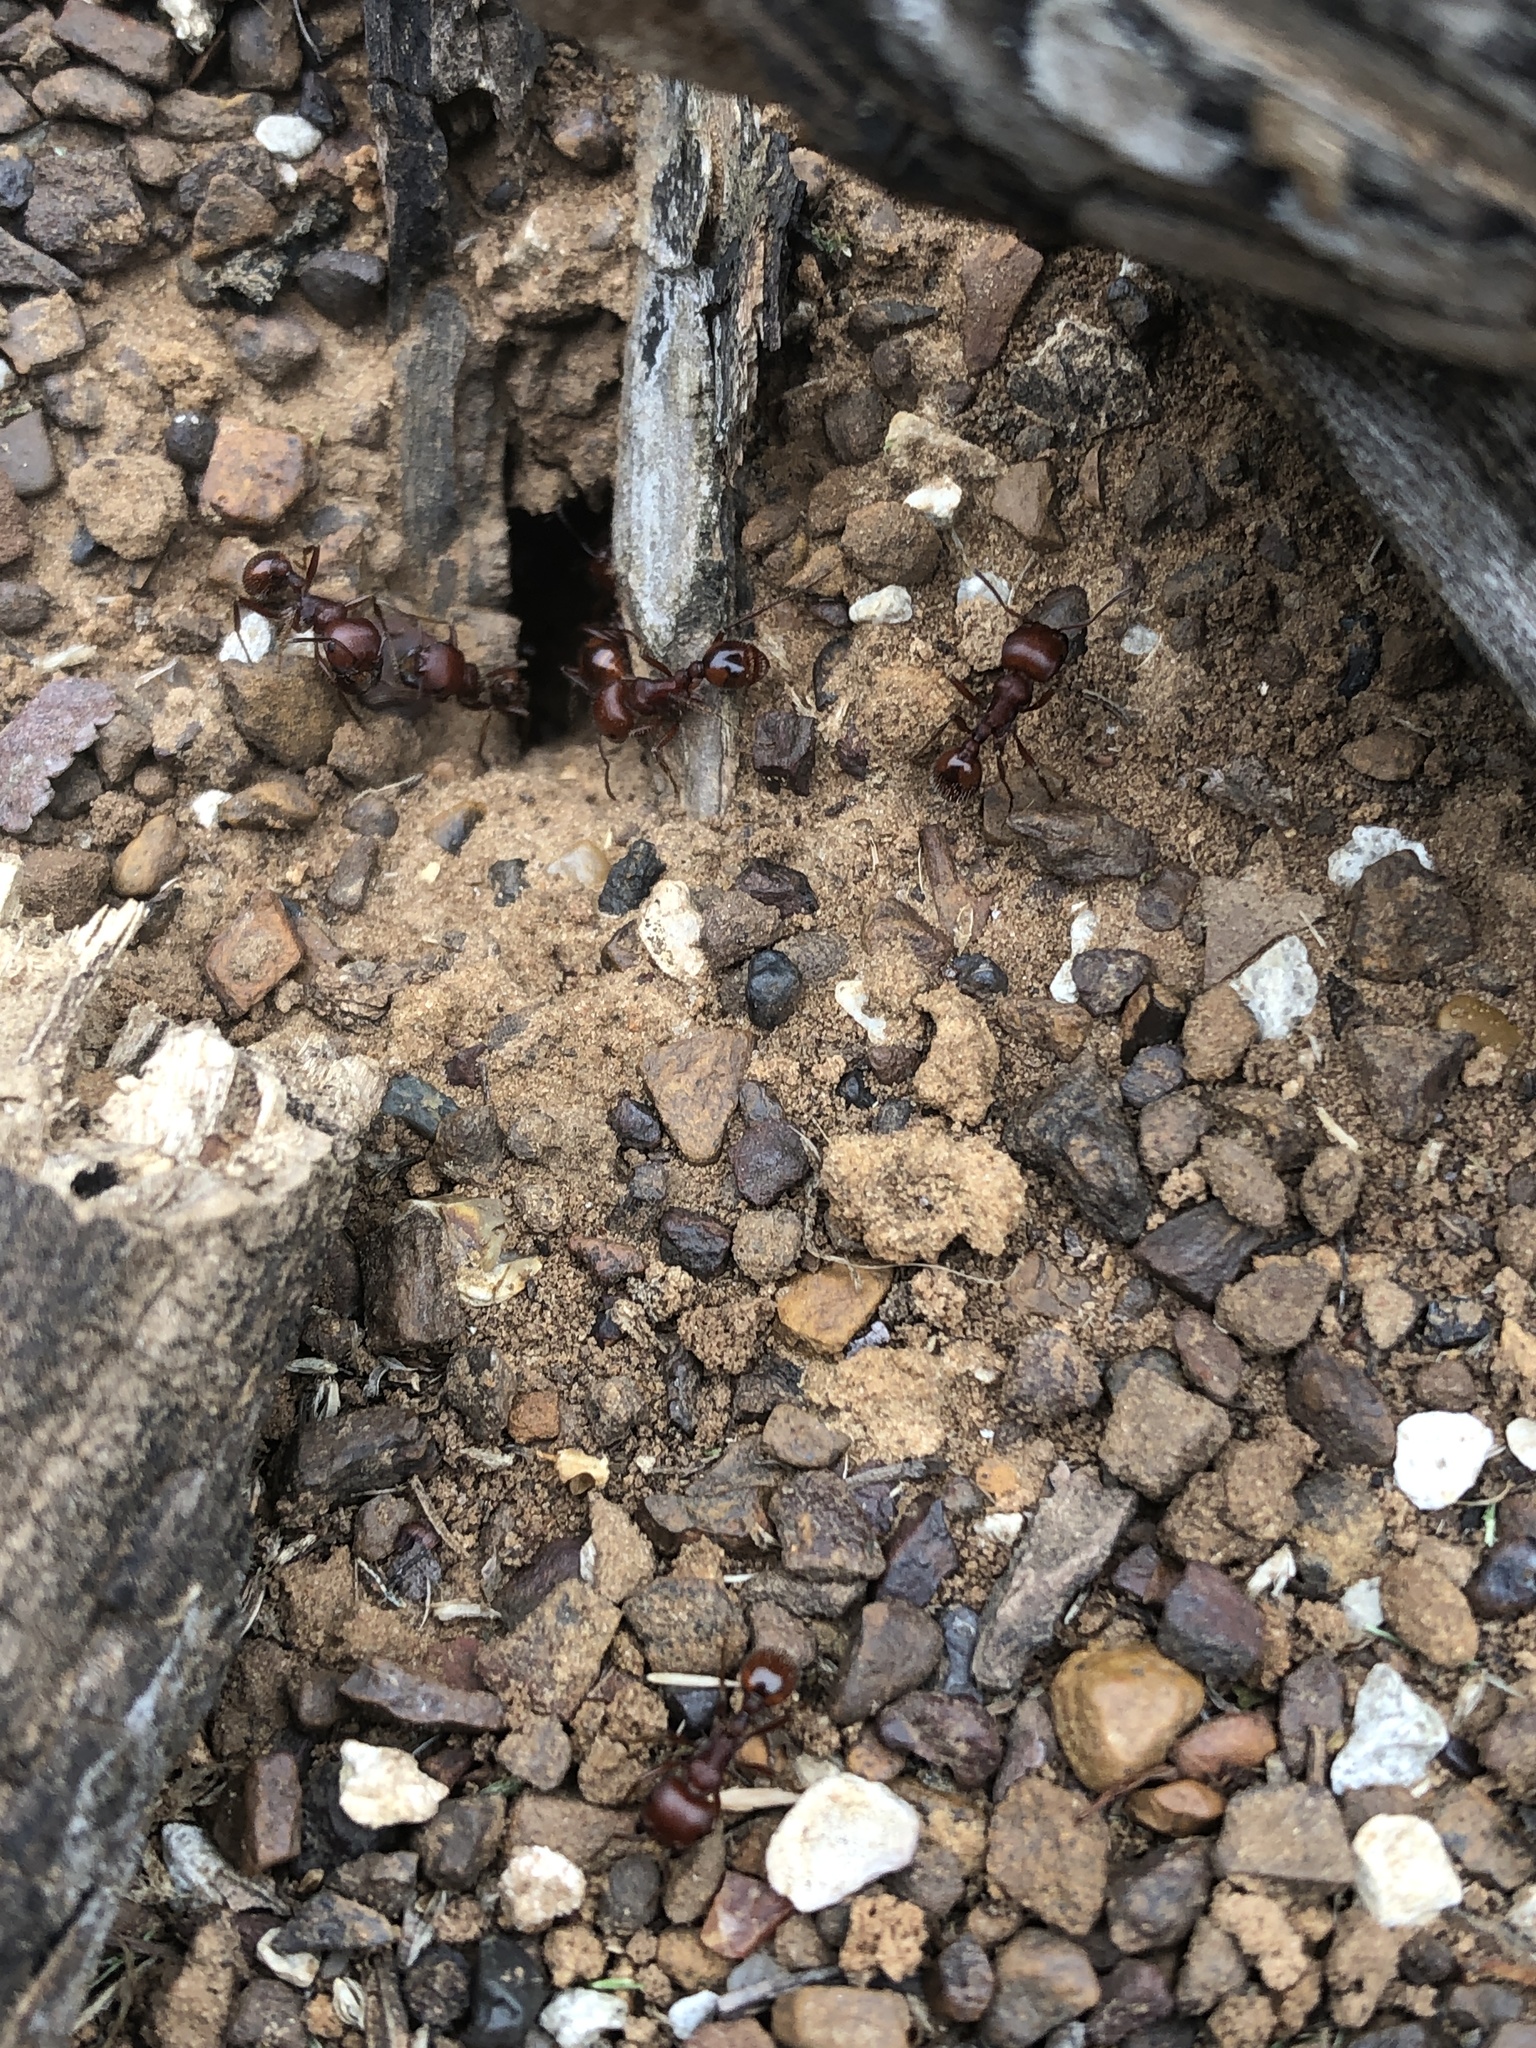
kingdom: Animalia
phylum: Arthropoda
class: Insecta
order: Hymenoptera
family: Formicidae
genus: Pogonomyrmex
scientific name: Pogonomyrmex barbatus
